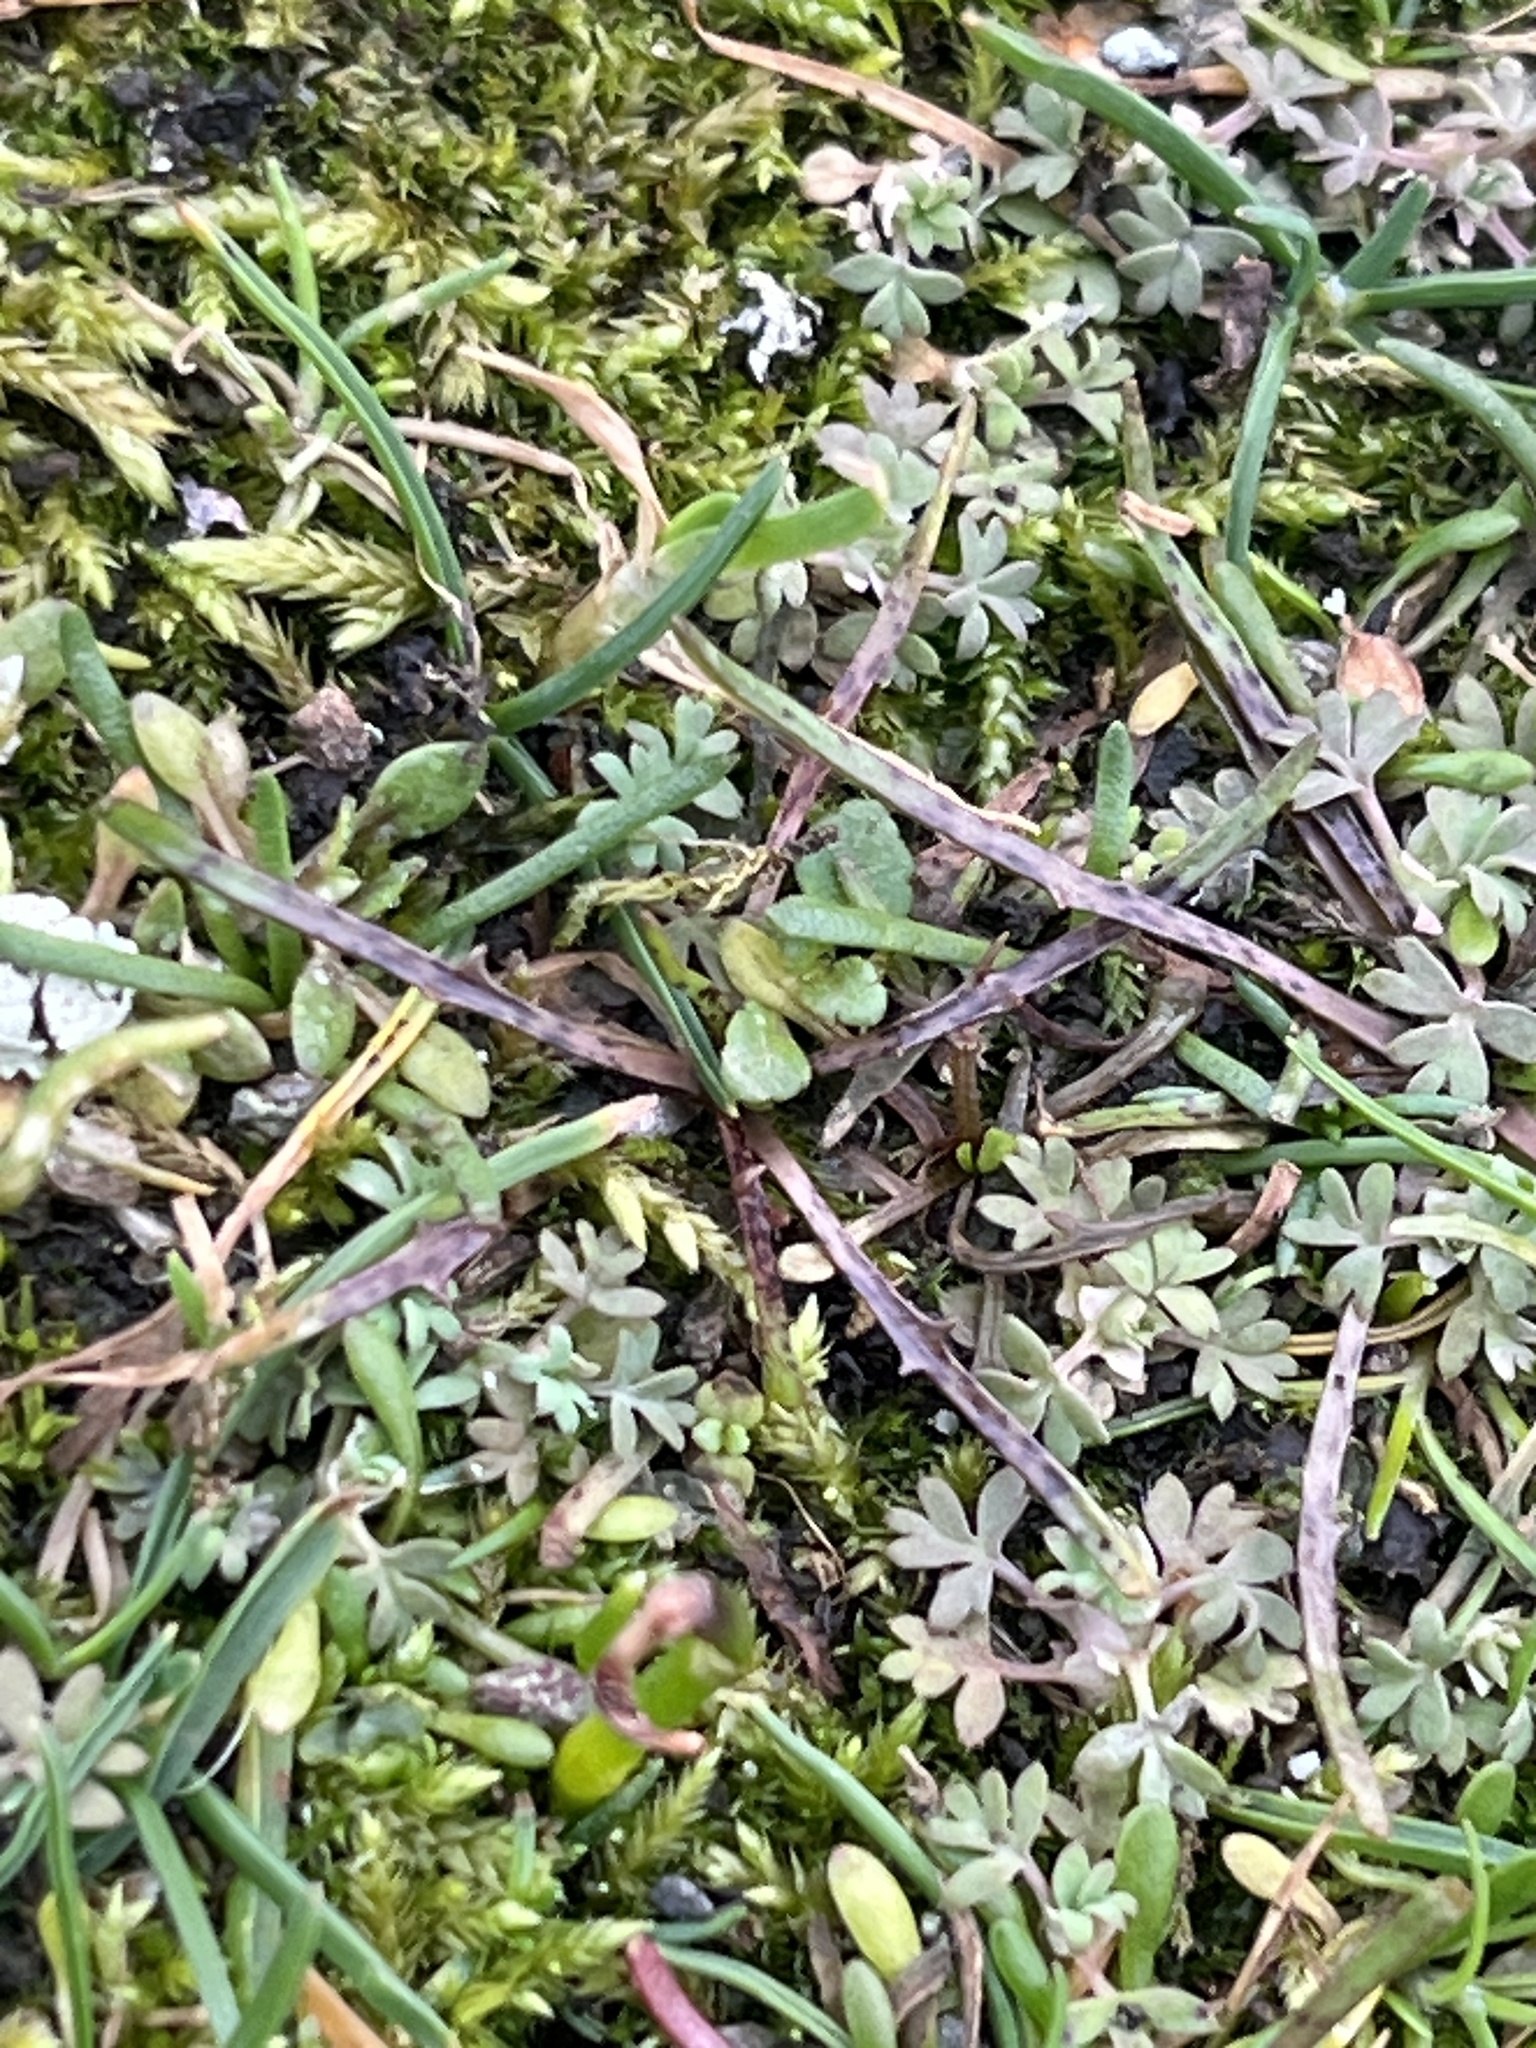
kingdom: Plantae
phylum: Tracheophyta
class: Magnoliopsida
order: Asterales
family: Asteraceae
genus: Microseris
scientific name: Microseris bigelovii
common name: Coast microseris
